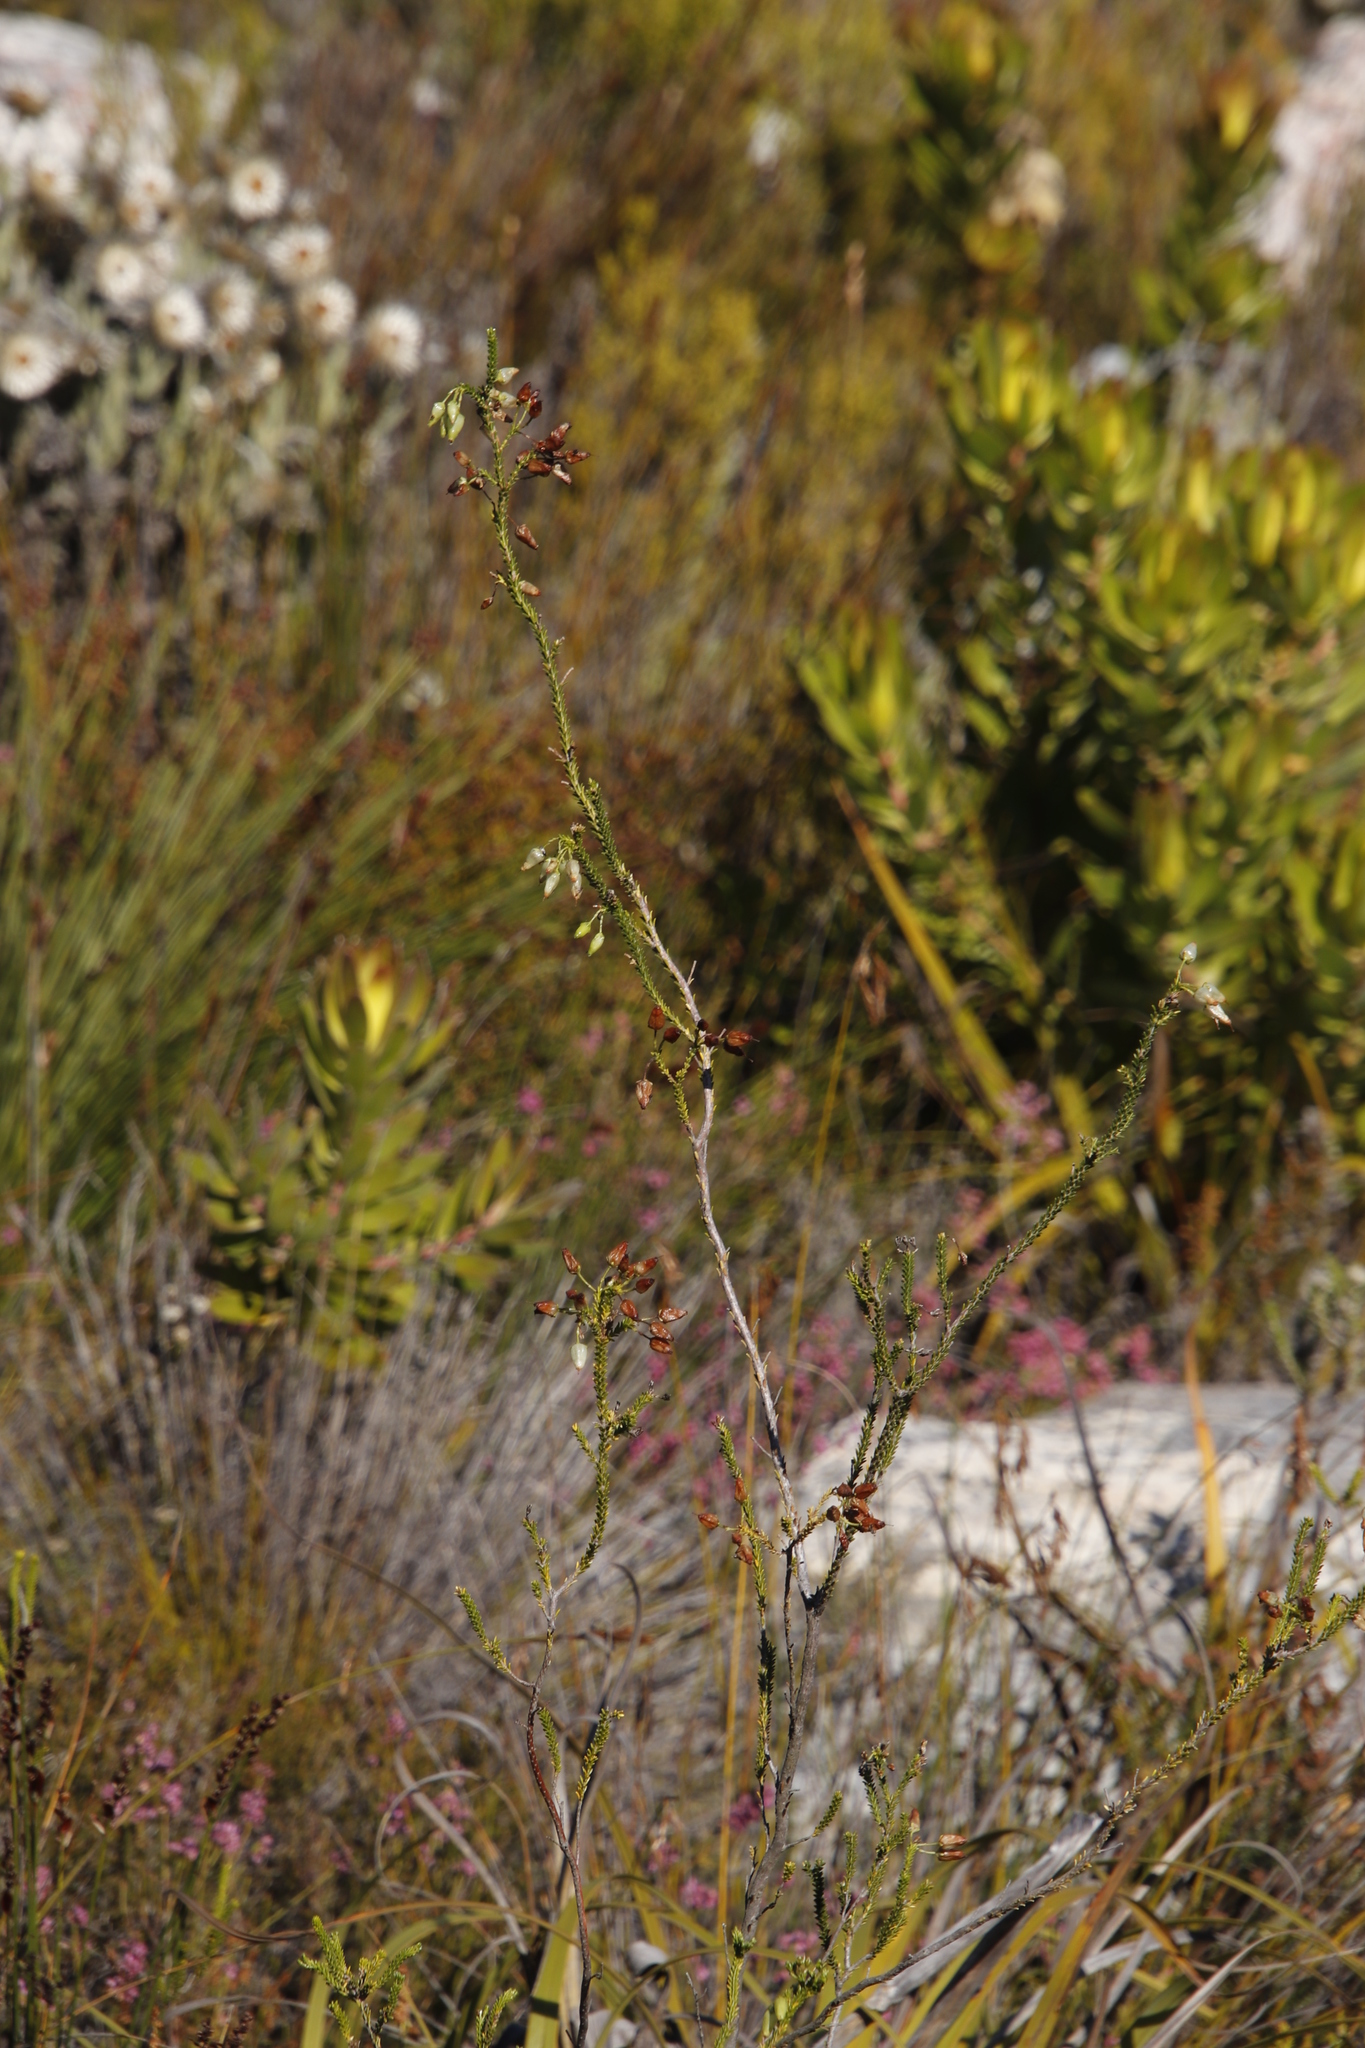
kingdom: Plantae
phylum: Tracheophyta
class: Magnoliopsida
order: Ericales
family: Ericaceae
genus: Erica
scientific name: Erica urna-viridis
